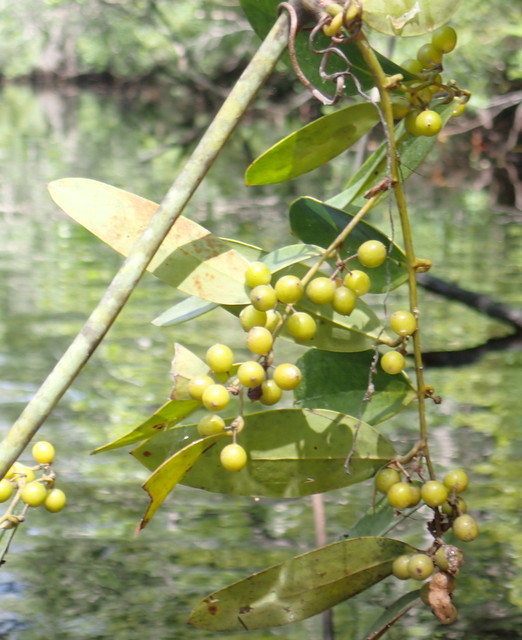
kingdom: Plantae
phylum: Tracheophyta
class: Liliopsida
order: Liliales
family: Smilacaceae
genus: Smilax
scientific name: Smilax laurifolia
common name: Bamboovine
